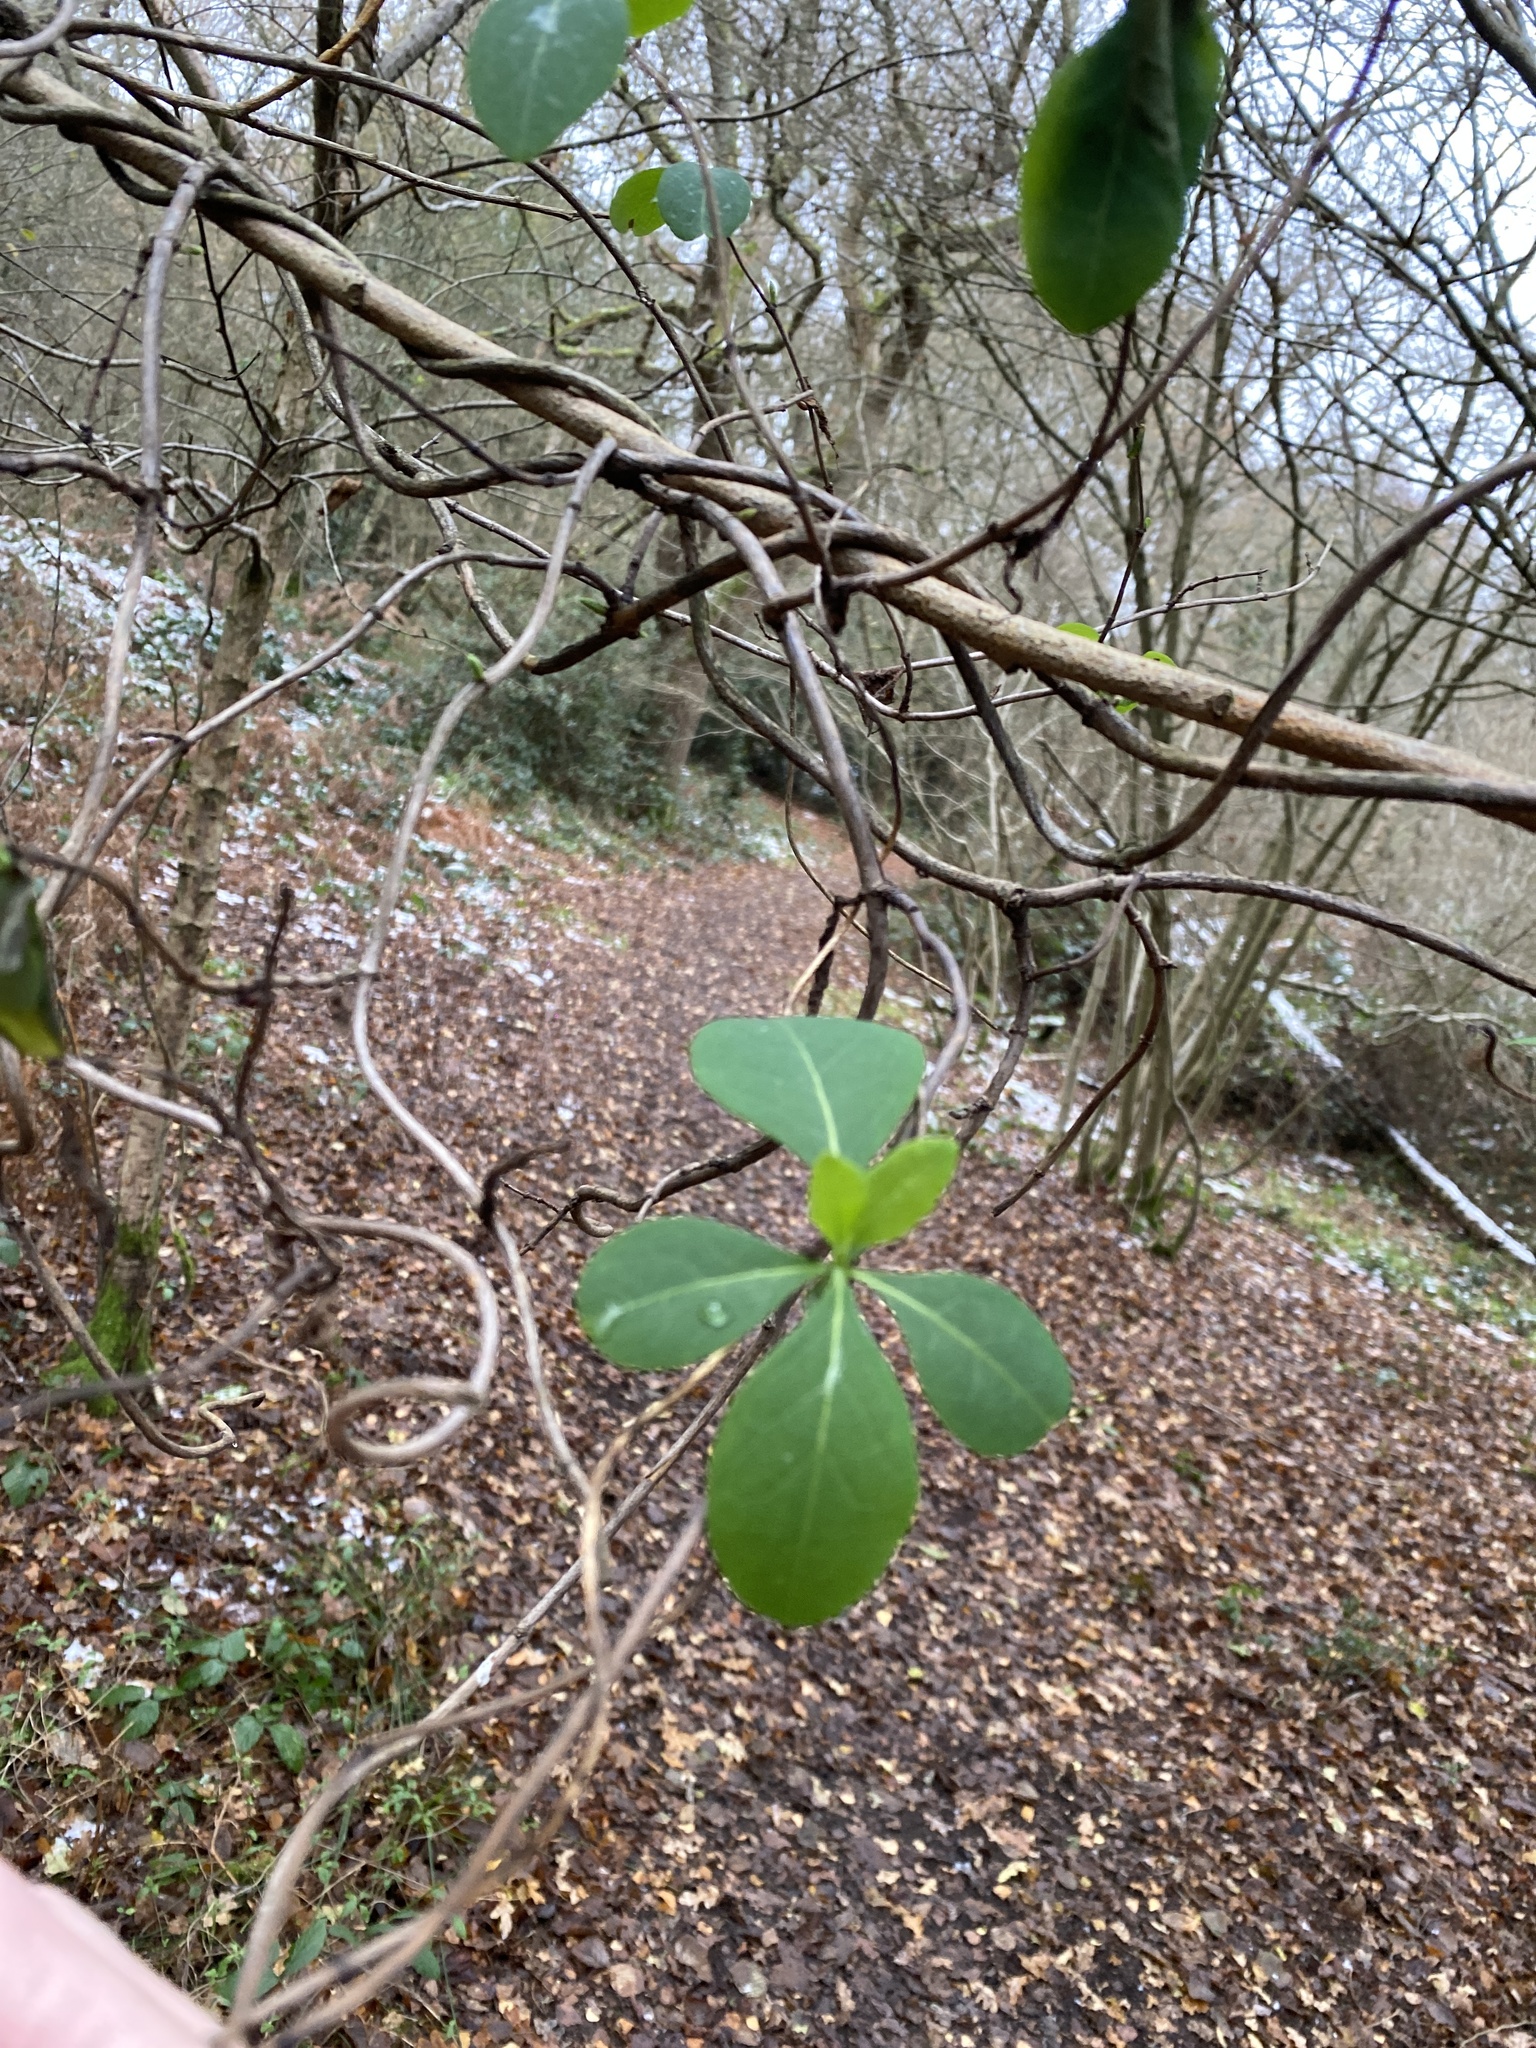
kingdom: Plantae
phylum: Tracheophyta
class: Magnoliopsida
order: Dipsacales
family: Caprifoliaceae
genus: Lonicera
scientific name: Lonicera periclymenum
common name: European honeysuckle
